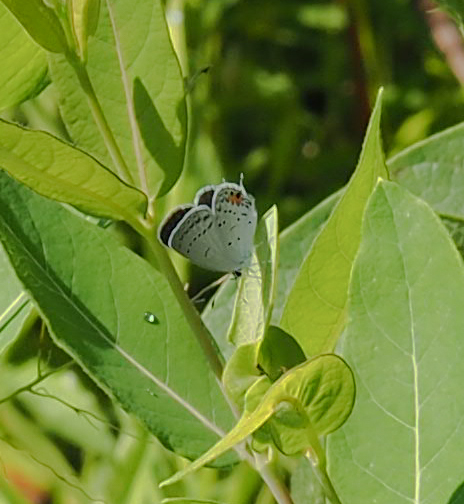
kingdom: Animalia
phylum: Arthropoda
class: Insecta
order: Lepidoptera
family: Lycaenidae
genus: Elkalyce
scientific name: Elkalyce comyntas
